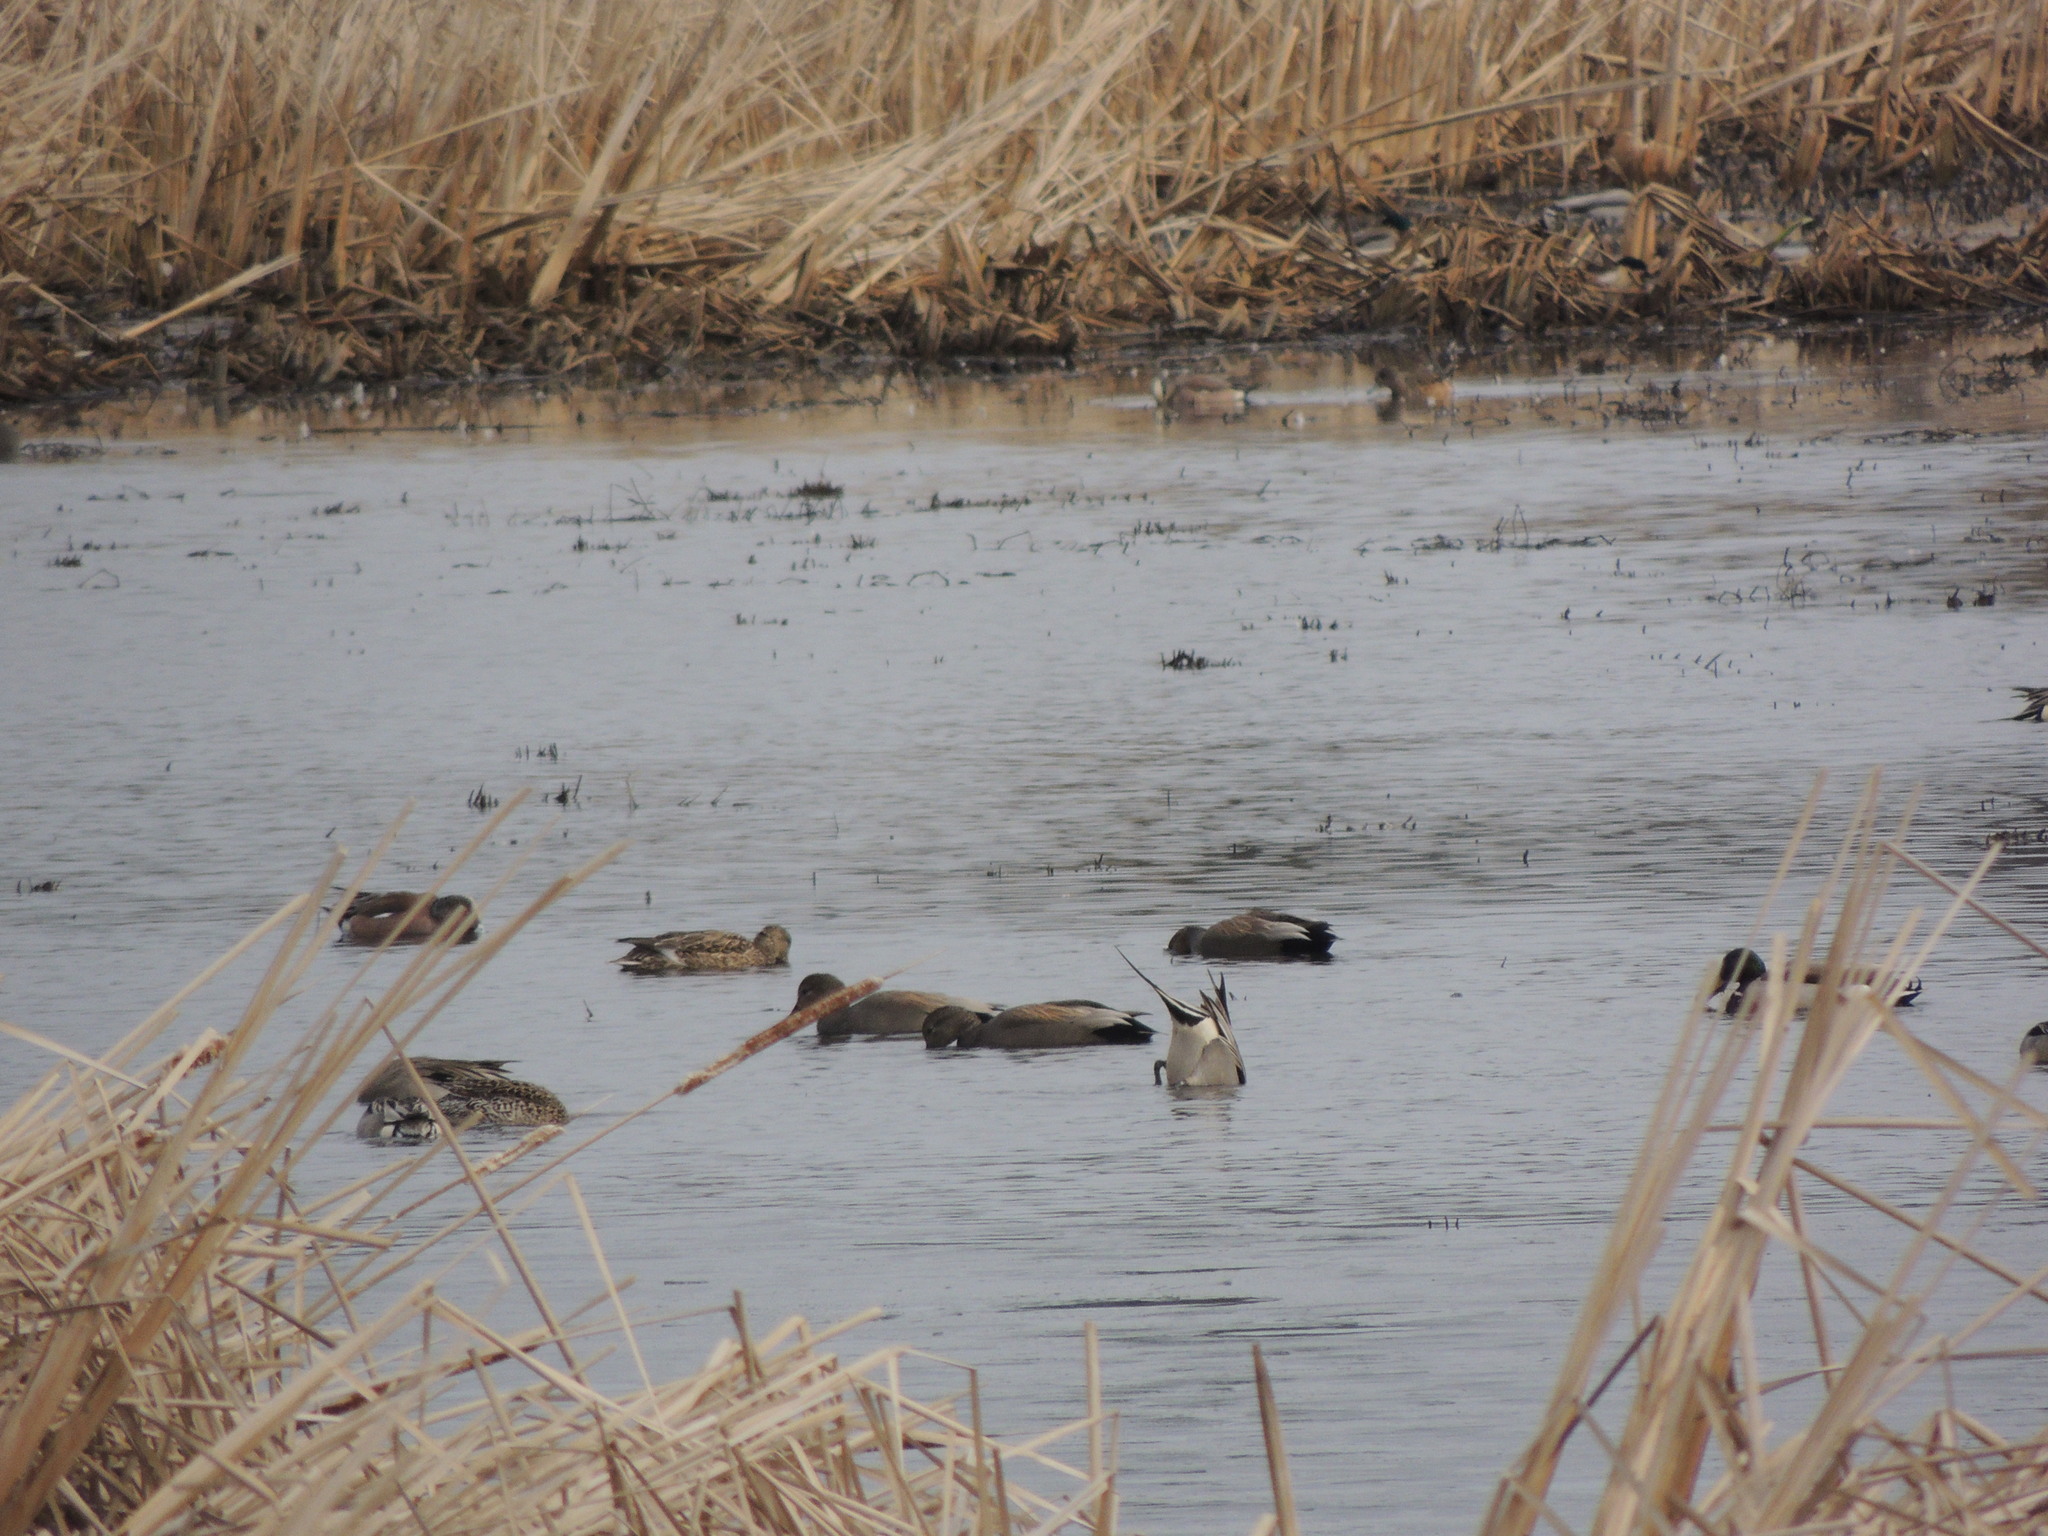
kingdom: Animalia
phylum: Chordata
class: Aves
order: Anseriformes
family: Anatidae
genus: Mareca
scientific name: Mareca strepera
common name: Gadwall
